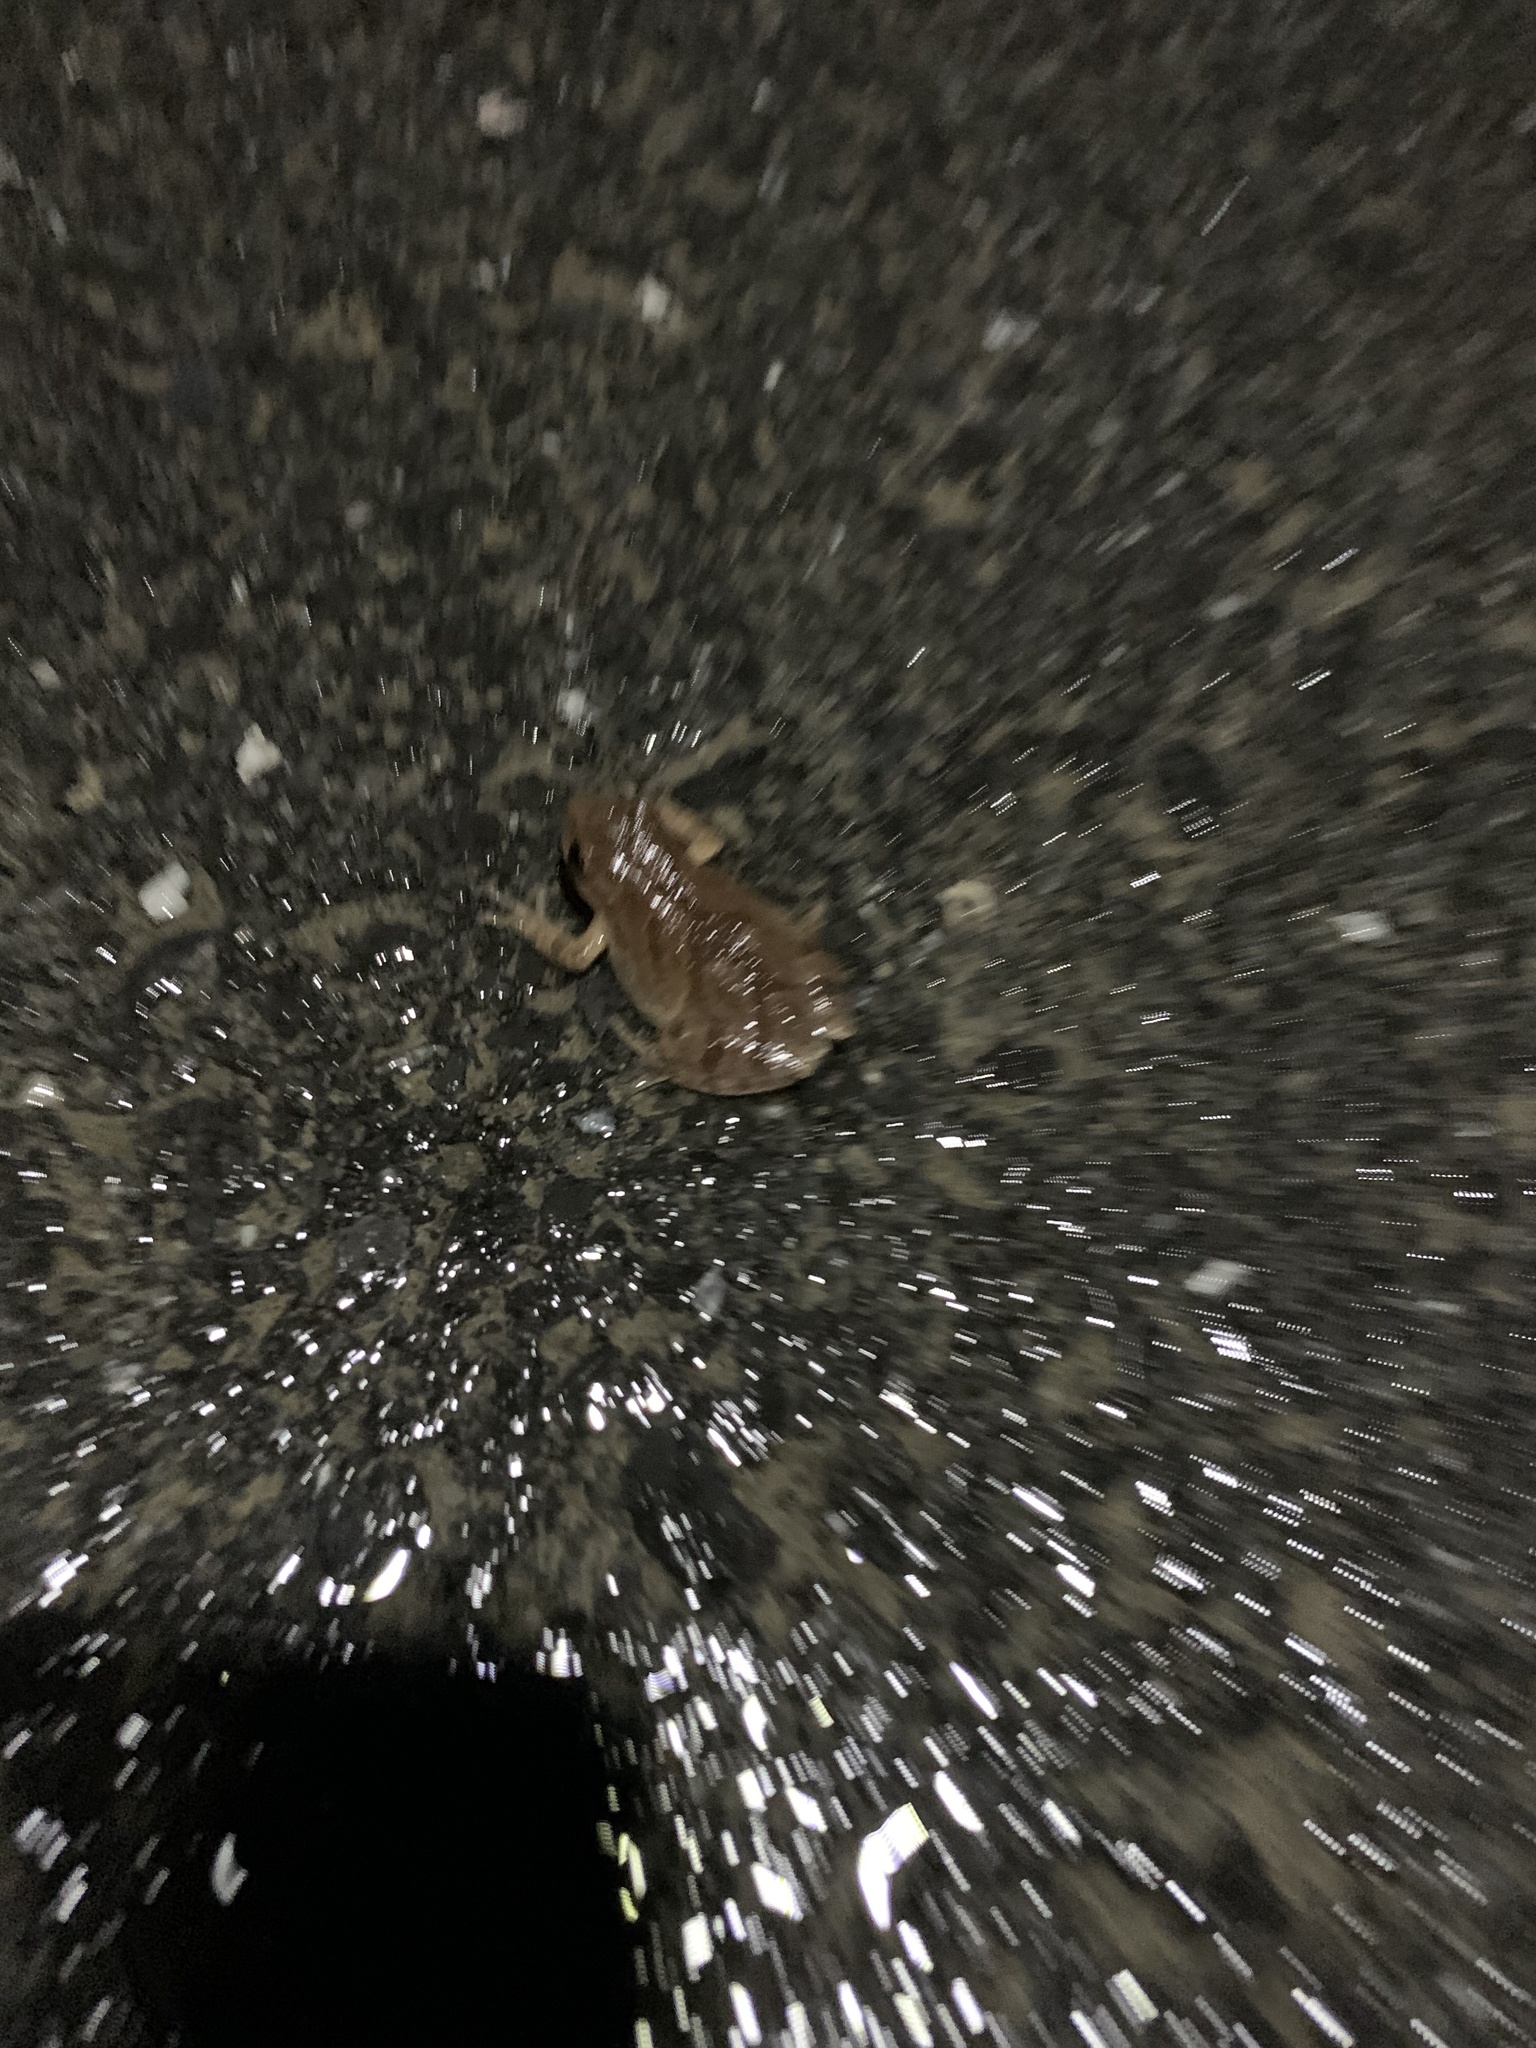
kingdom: Animalia
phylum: Chordata
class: Amphibia
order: Anura
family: Hylidae
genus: Pseudacris
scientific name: Pseudacris crucifer
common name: Spring peeper
